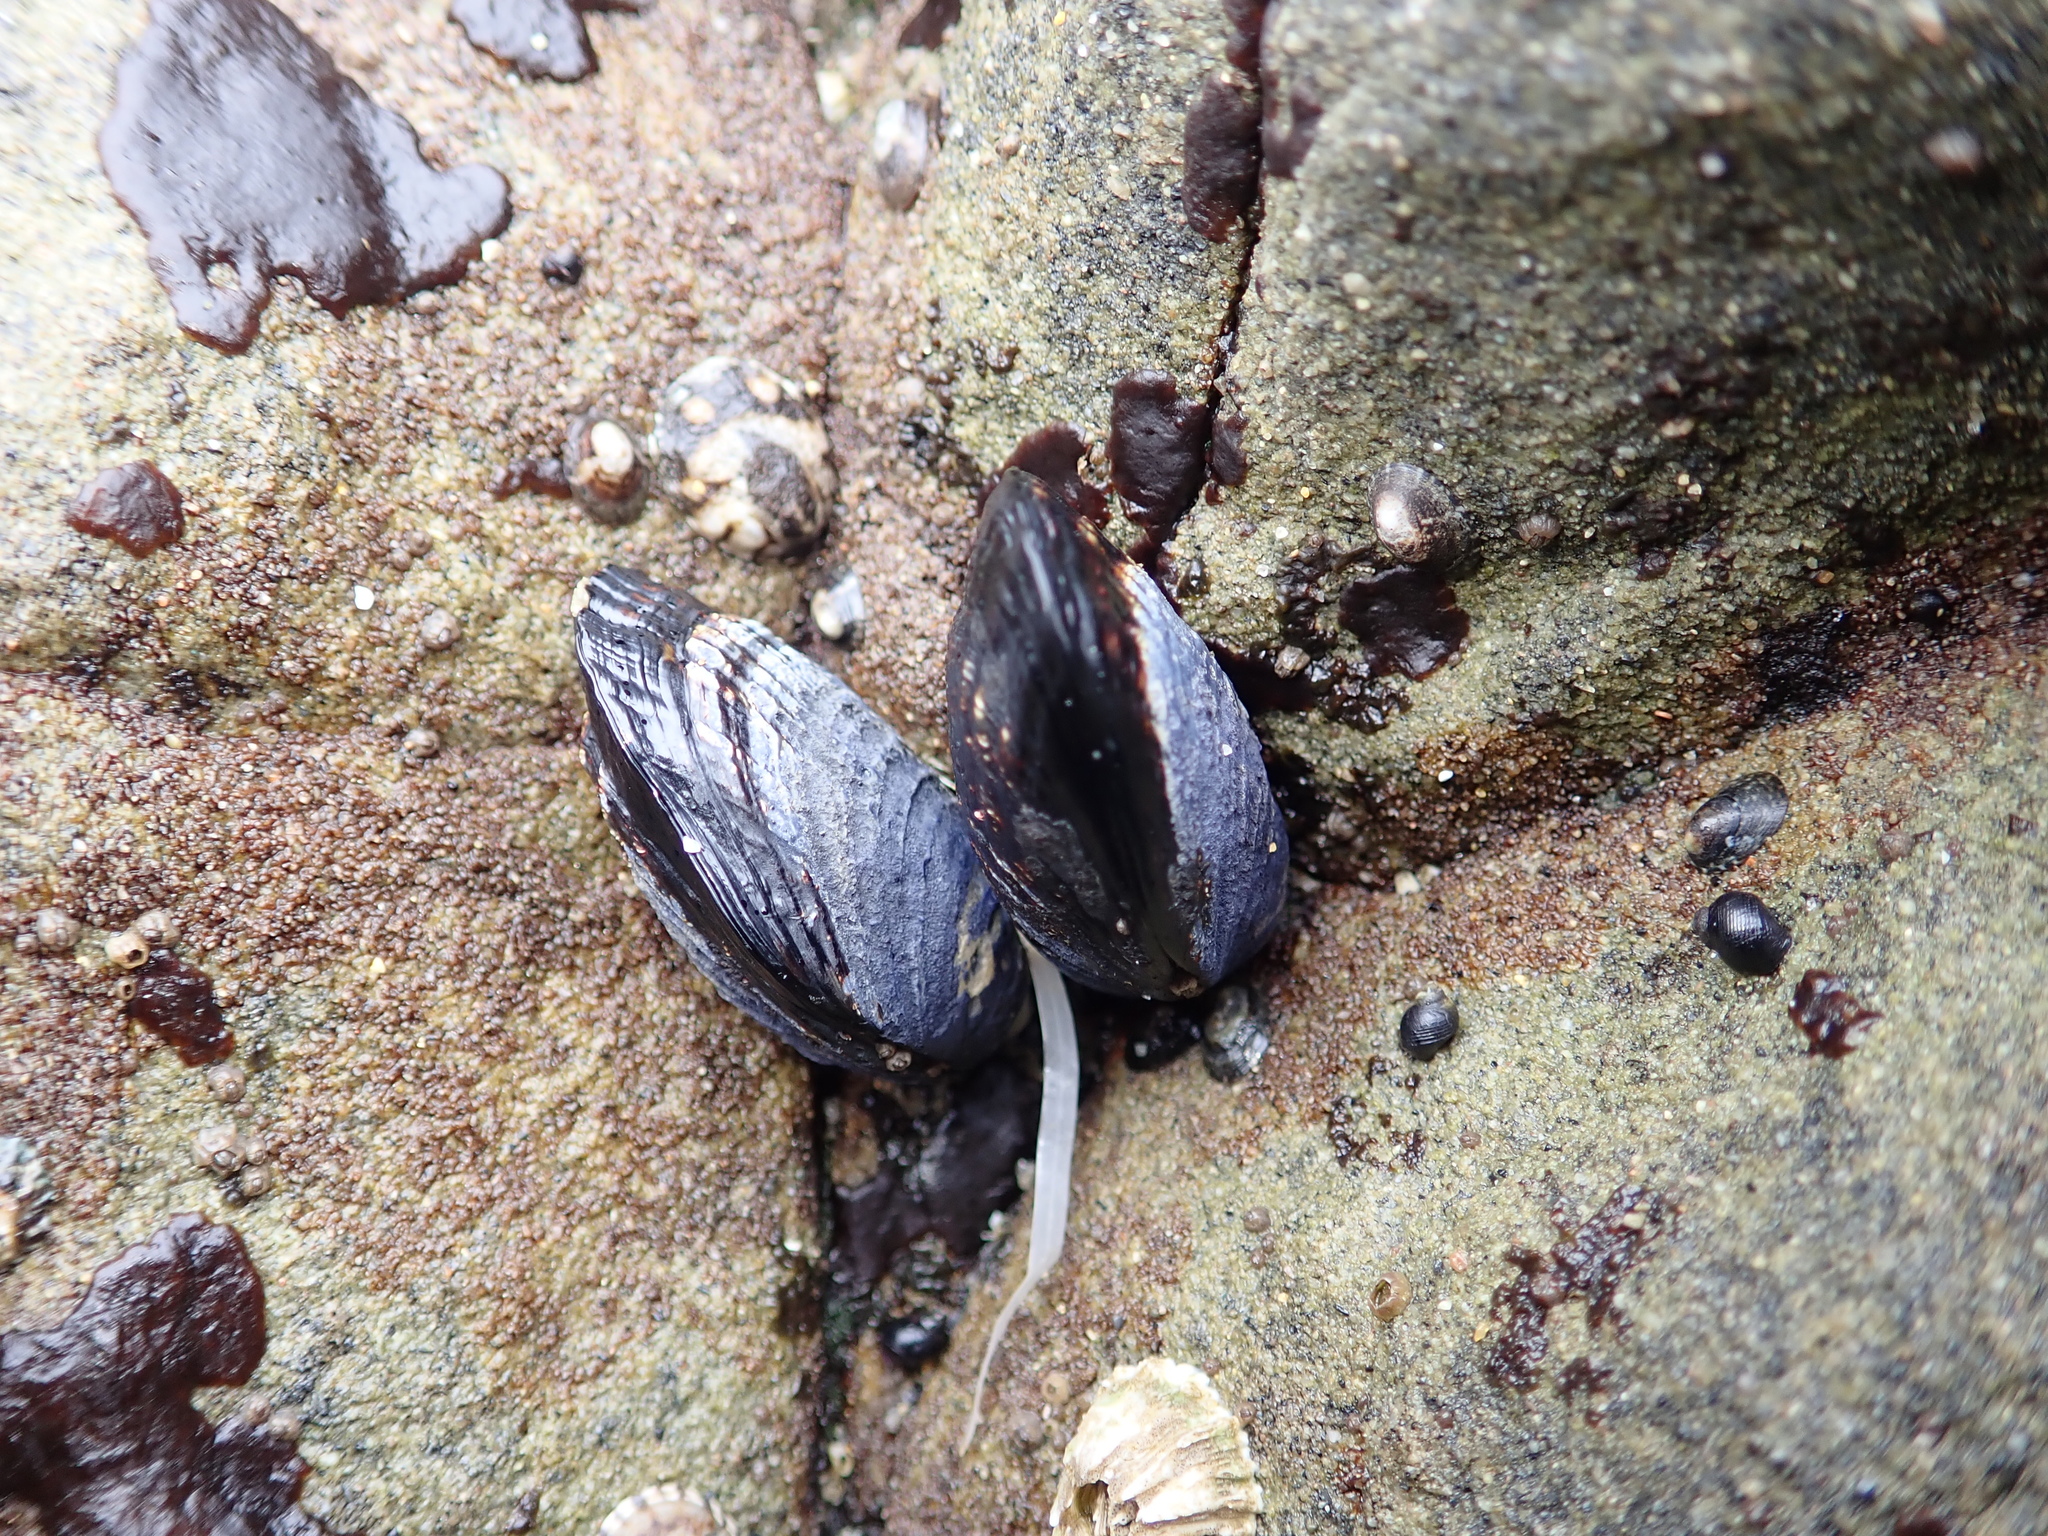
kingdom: Animalia
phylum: Mollusca
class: Bivalvia
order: Mytilida
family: Mytilidae
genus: Mytilus
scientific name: Mytilus californianus
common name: California mussel
